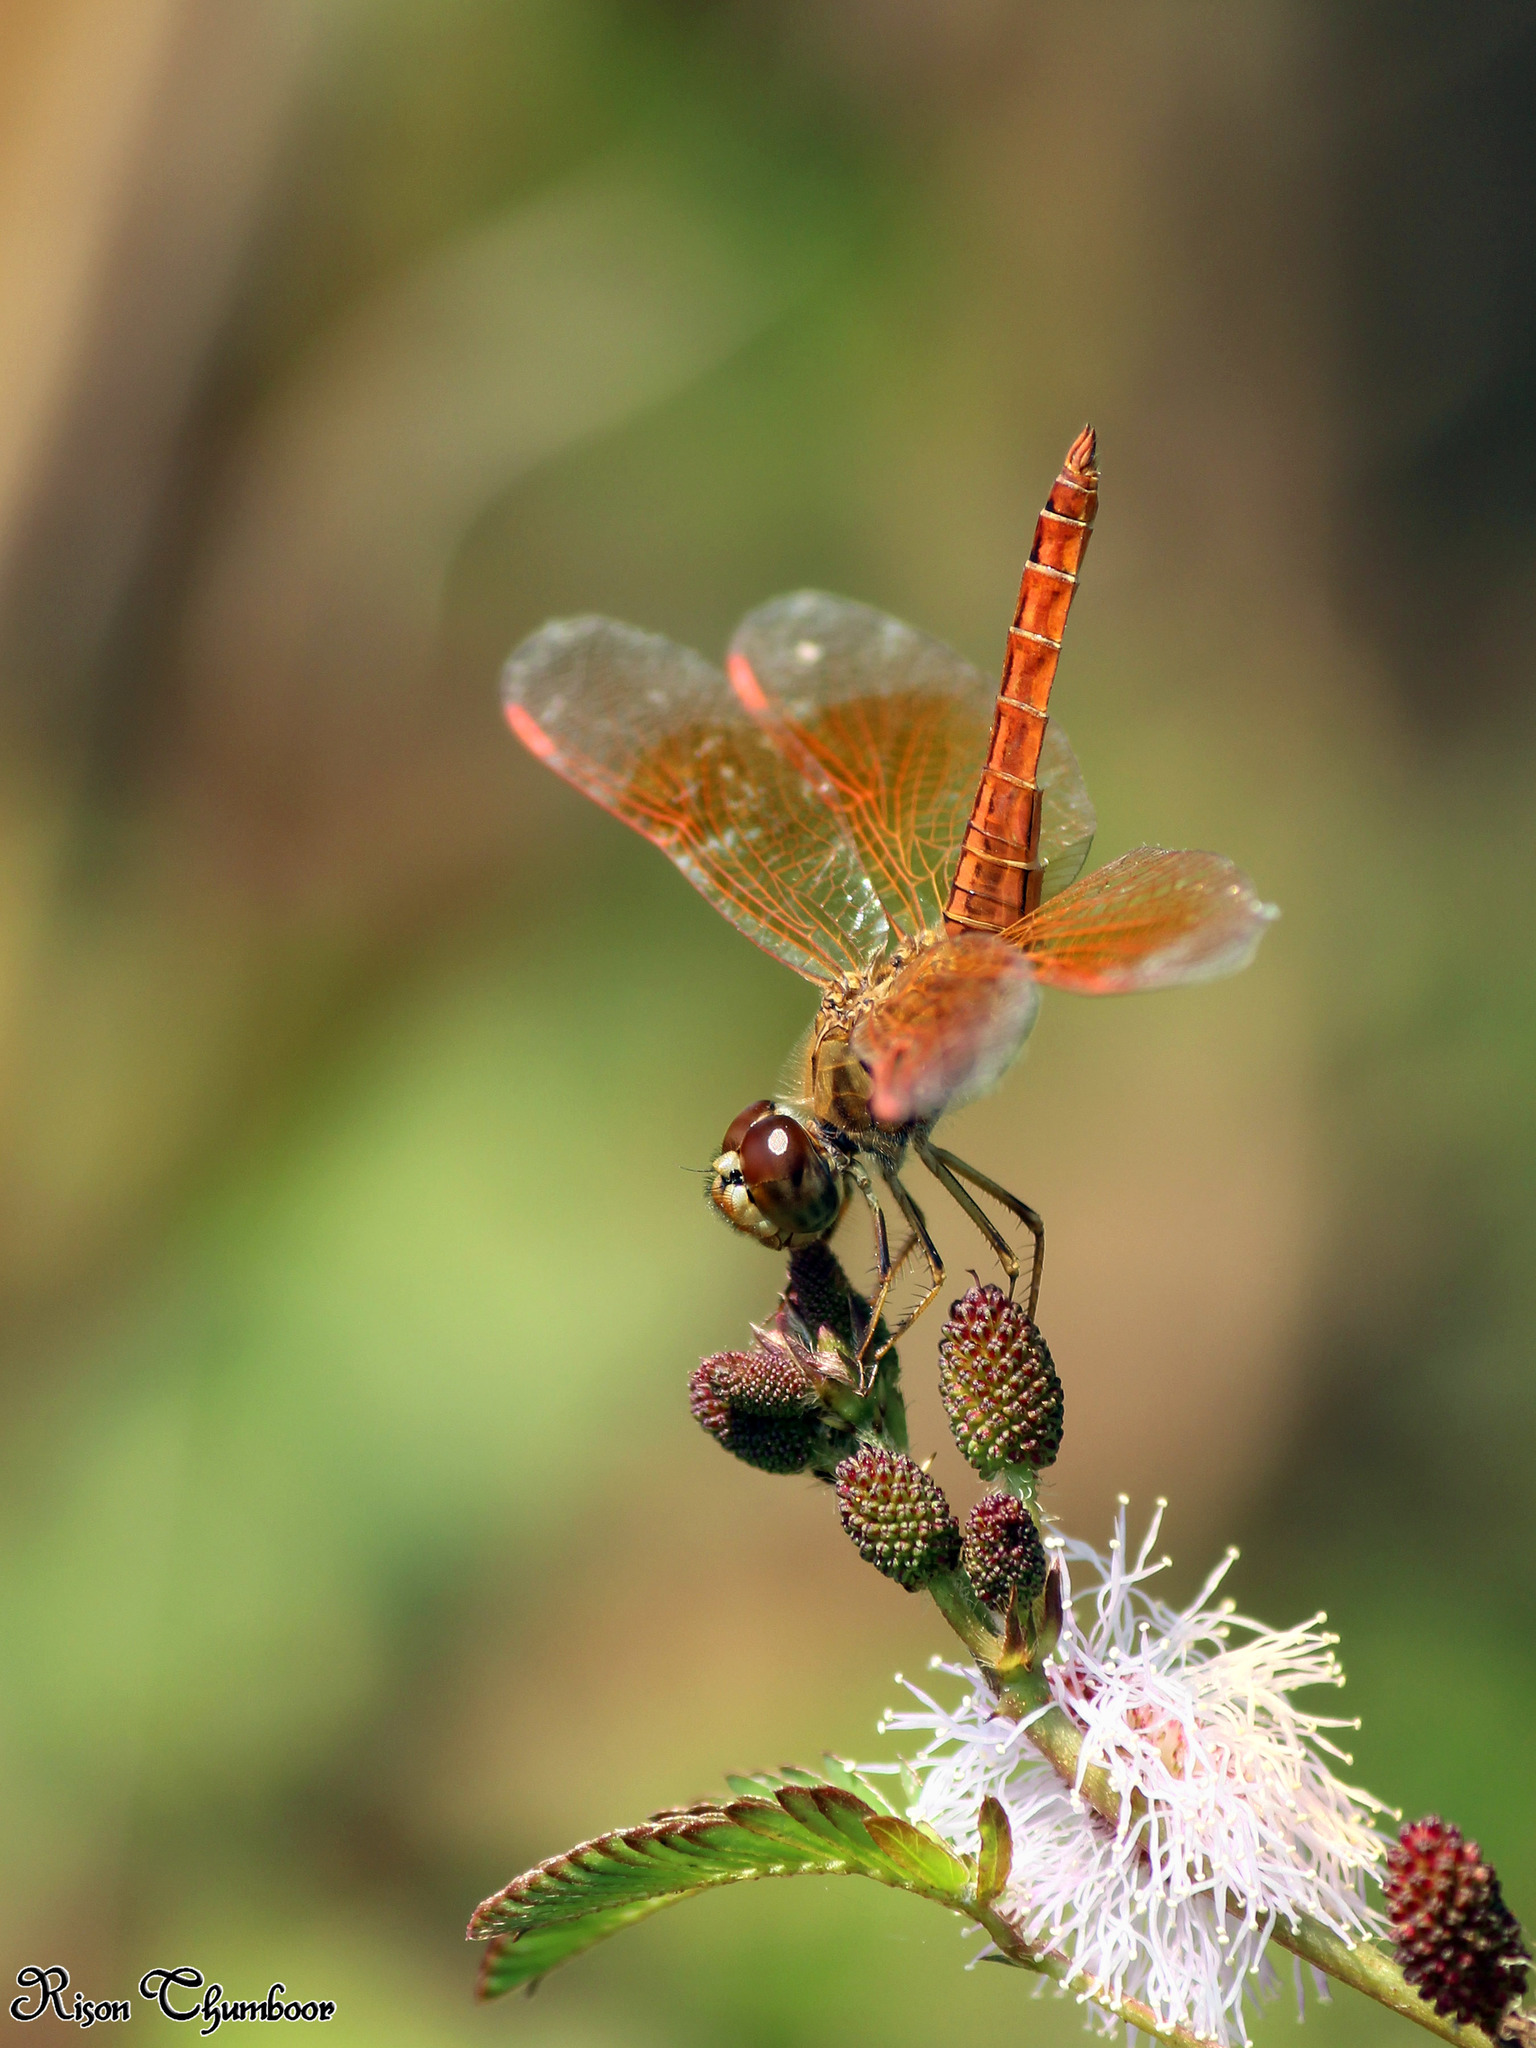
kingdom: Animalia
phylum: Arthropoda
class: Insecta
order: Odonata
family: Libellulidae
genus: Brachythemis
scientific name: Brachythemis contaminata
